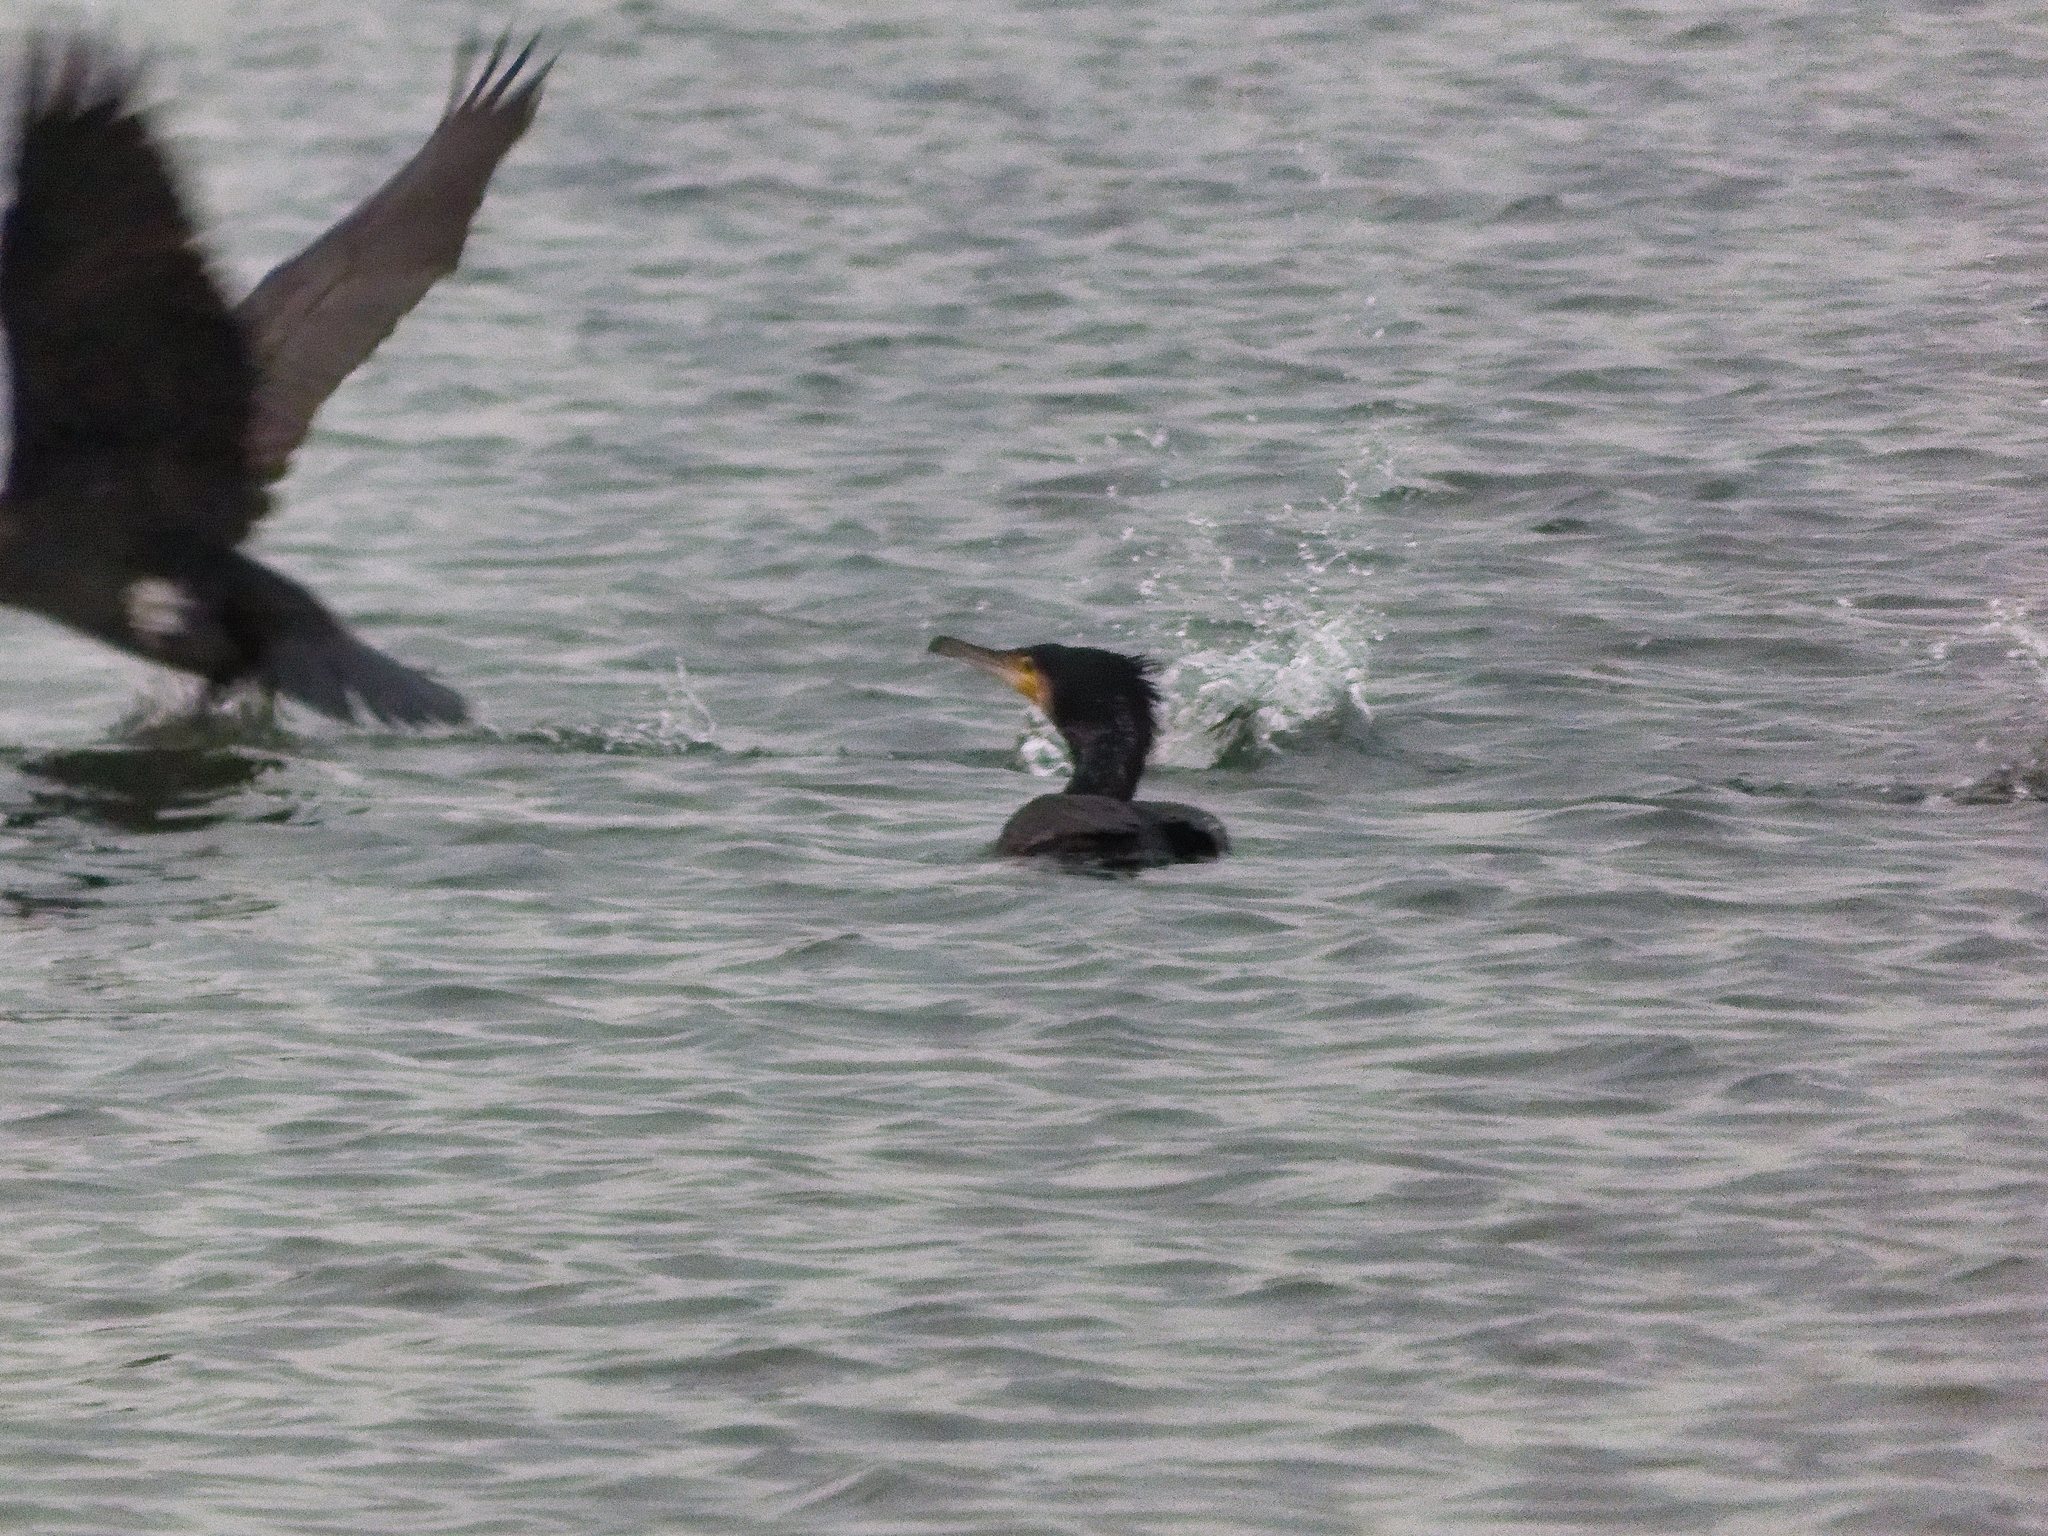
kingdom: Animalia
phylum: Chordata
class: Aves
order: Suliformes
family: Phalacrocoracidae
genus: Phalacrocorax
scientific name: Phalacrocorax carbo
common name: Great cormorant
